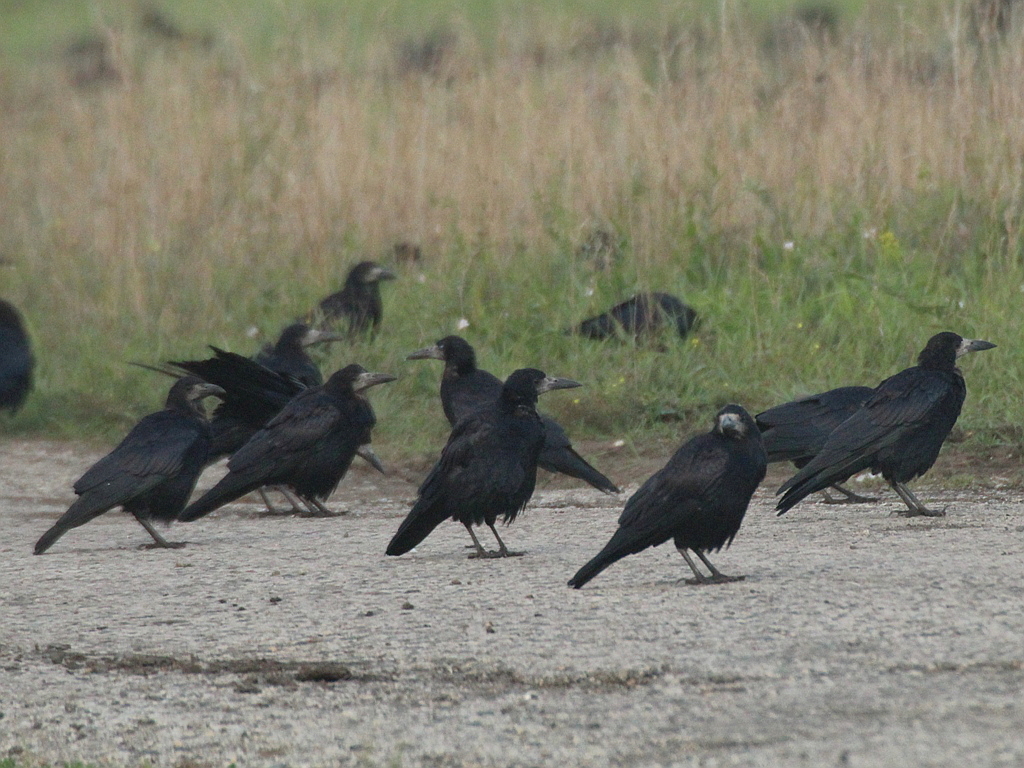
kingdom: Animalia
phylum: Chordata
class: Aves
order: Passeriformes
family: Corvidae
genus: Corvus
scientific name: Corvus frugilegus
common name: Rook
